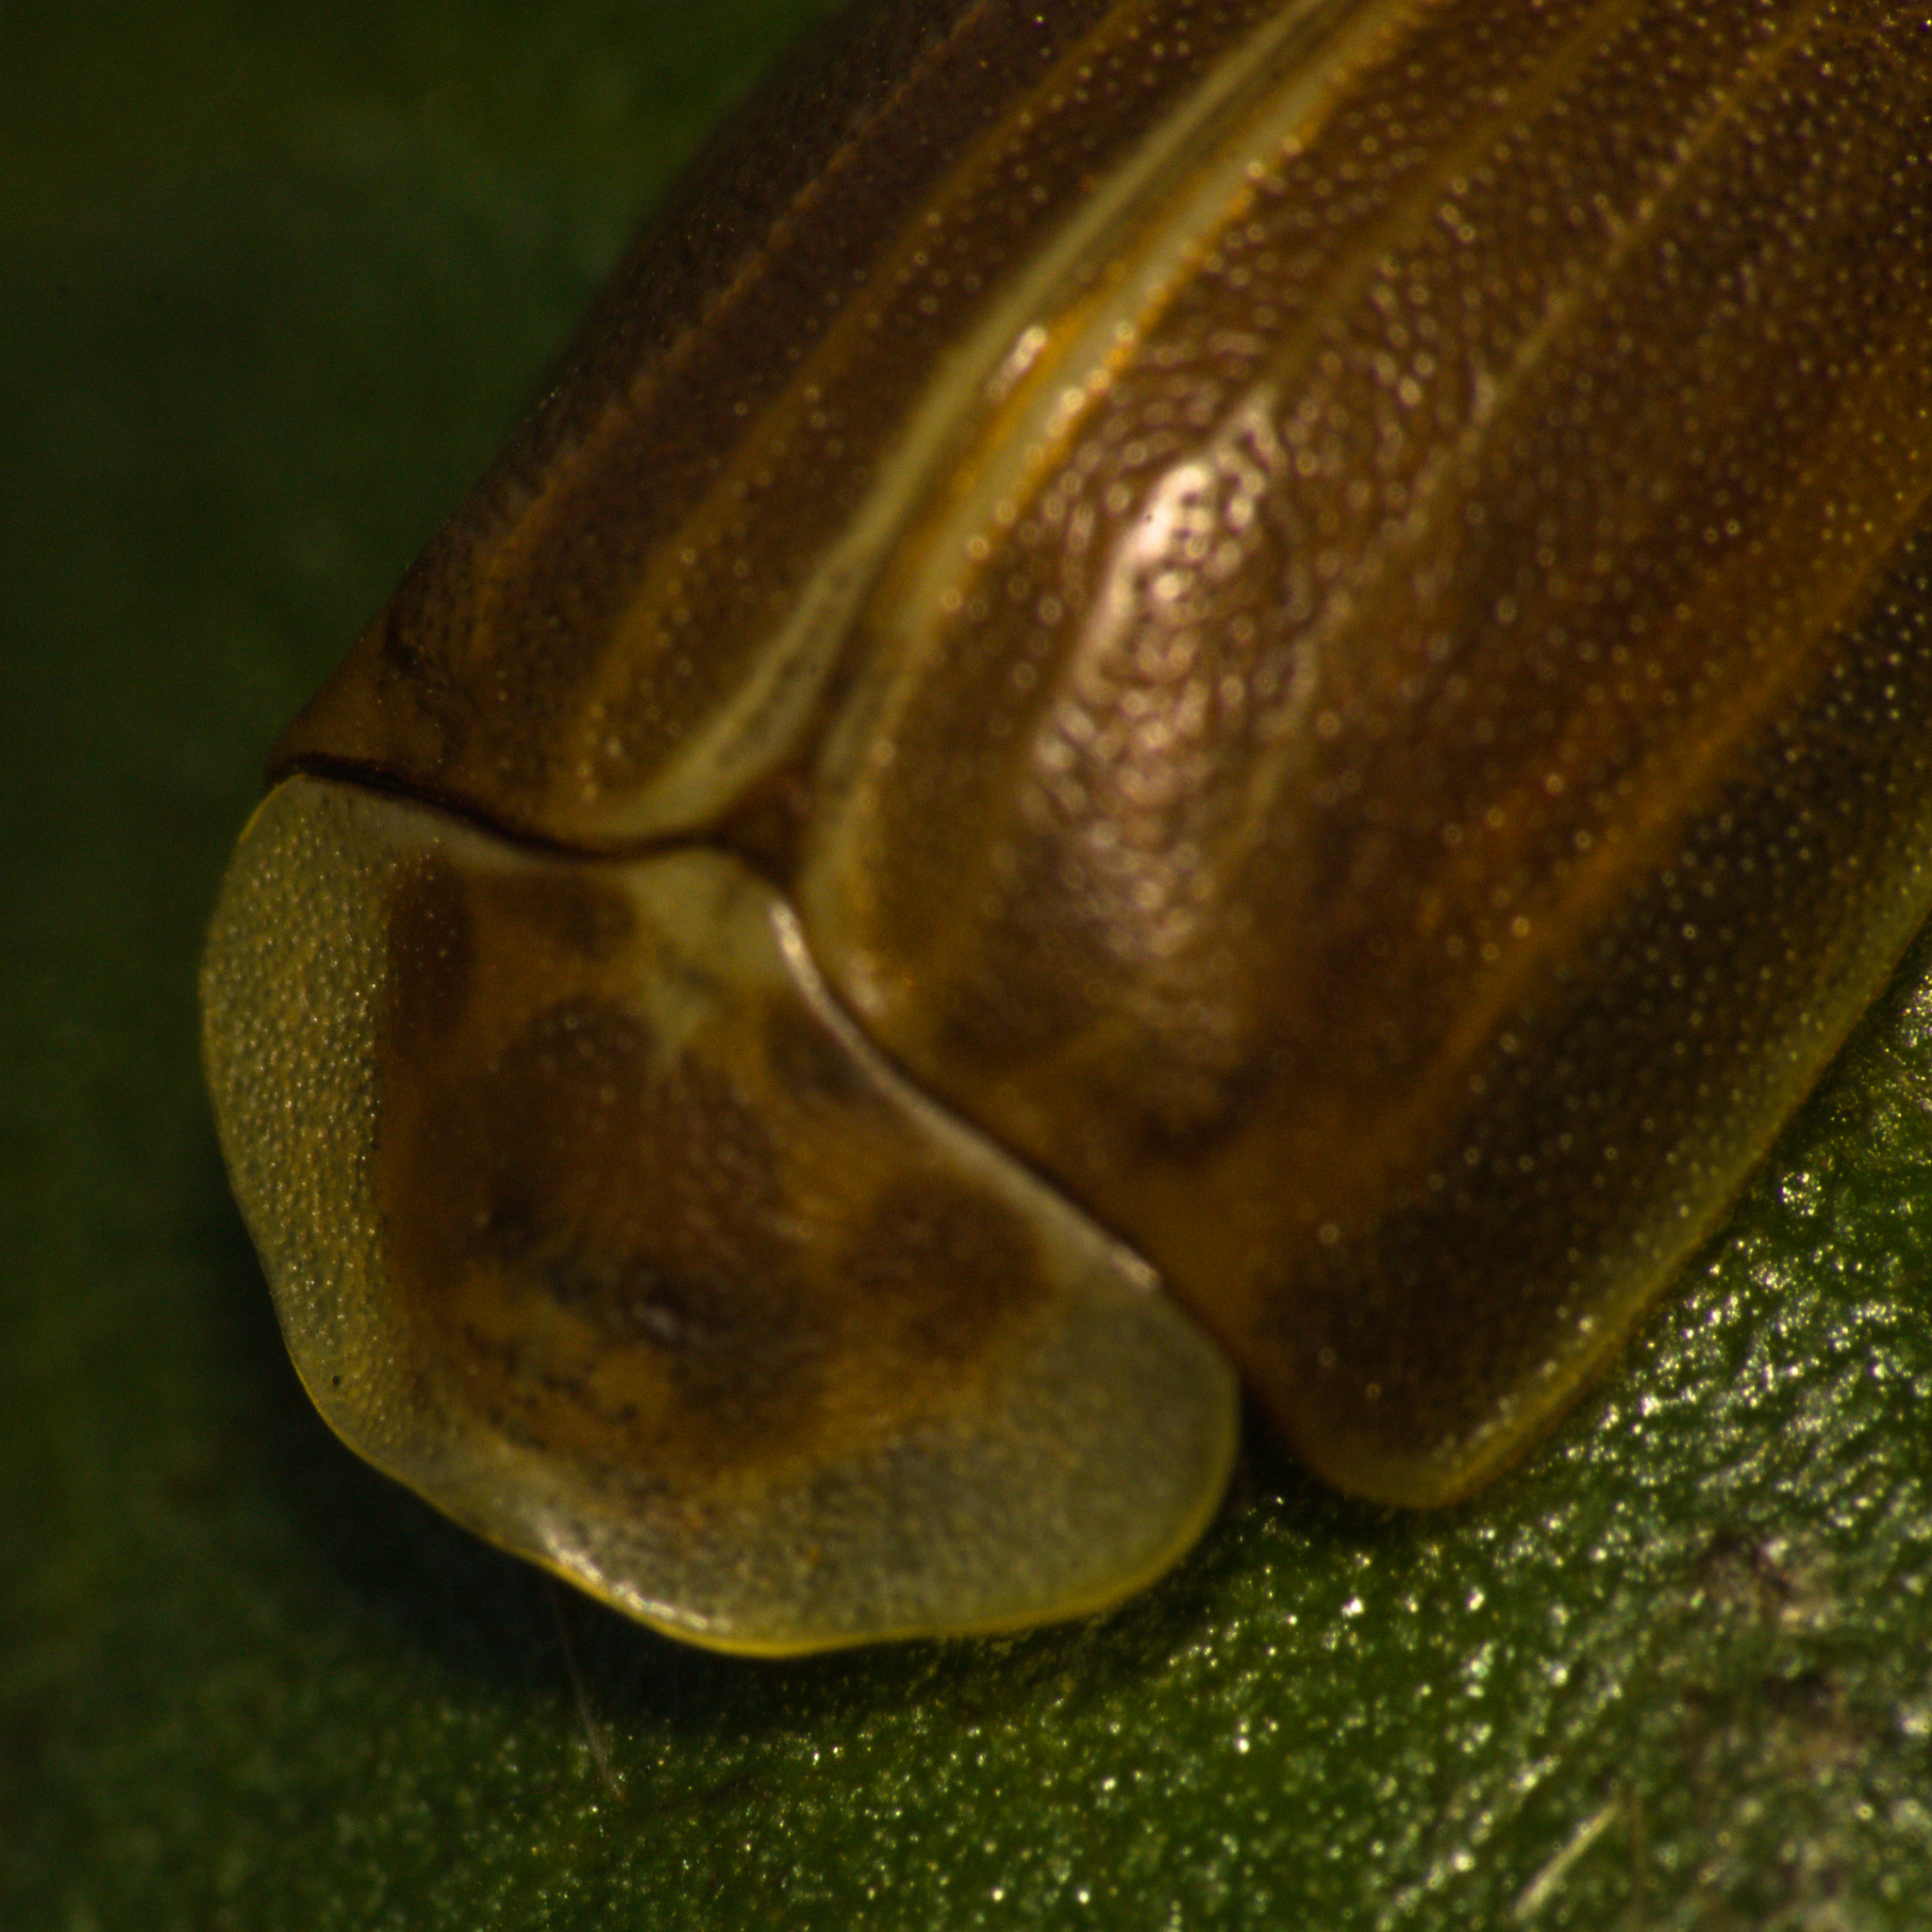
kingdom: Animalia
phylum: Arthropoda
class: Insecta
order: Coleoptera
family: Chrysomelidae
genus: Anacassis
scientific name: Anacassis fuscata
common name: Seepwillow flea beetle
